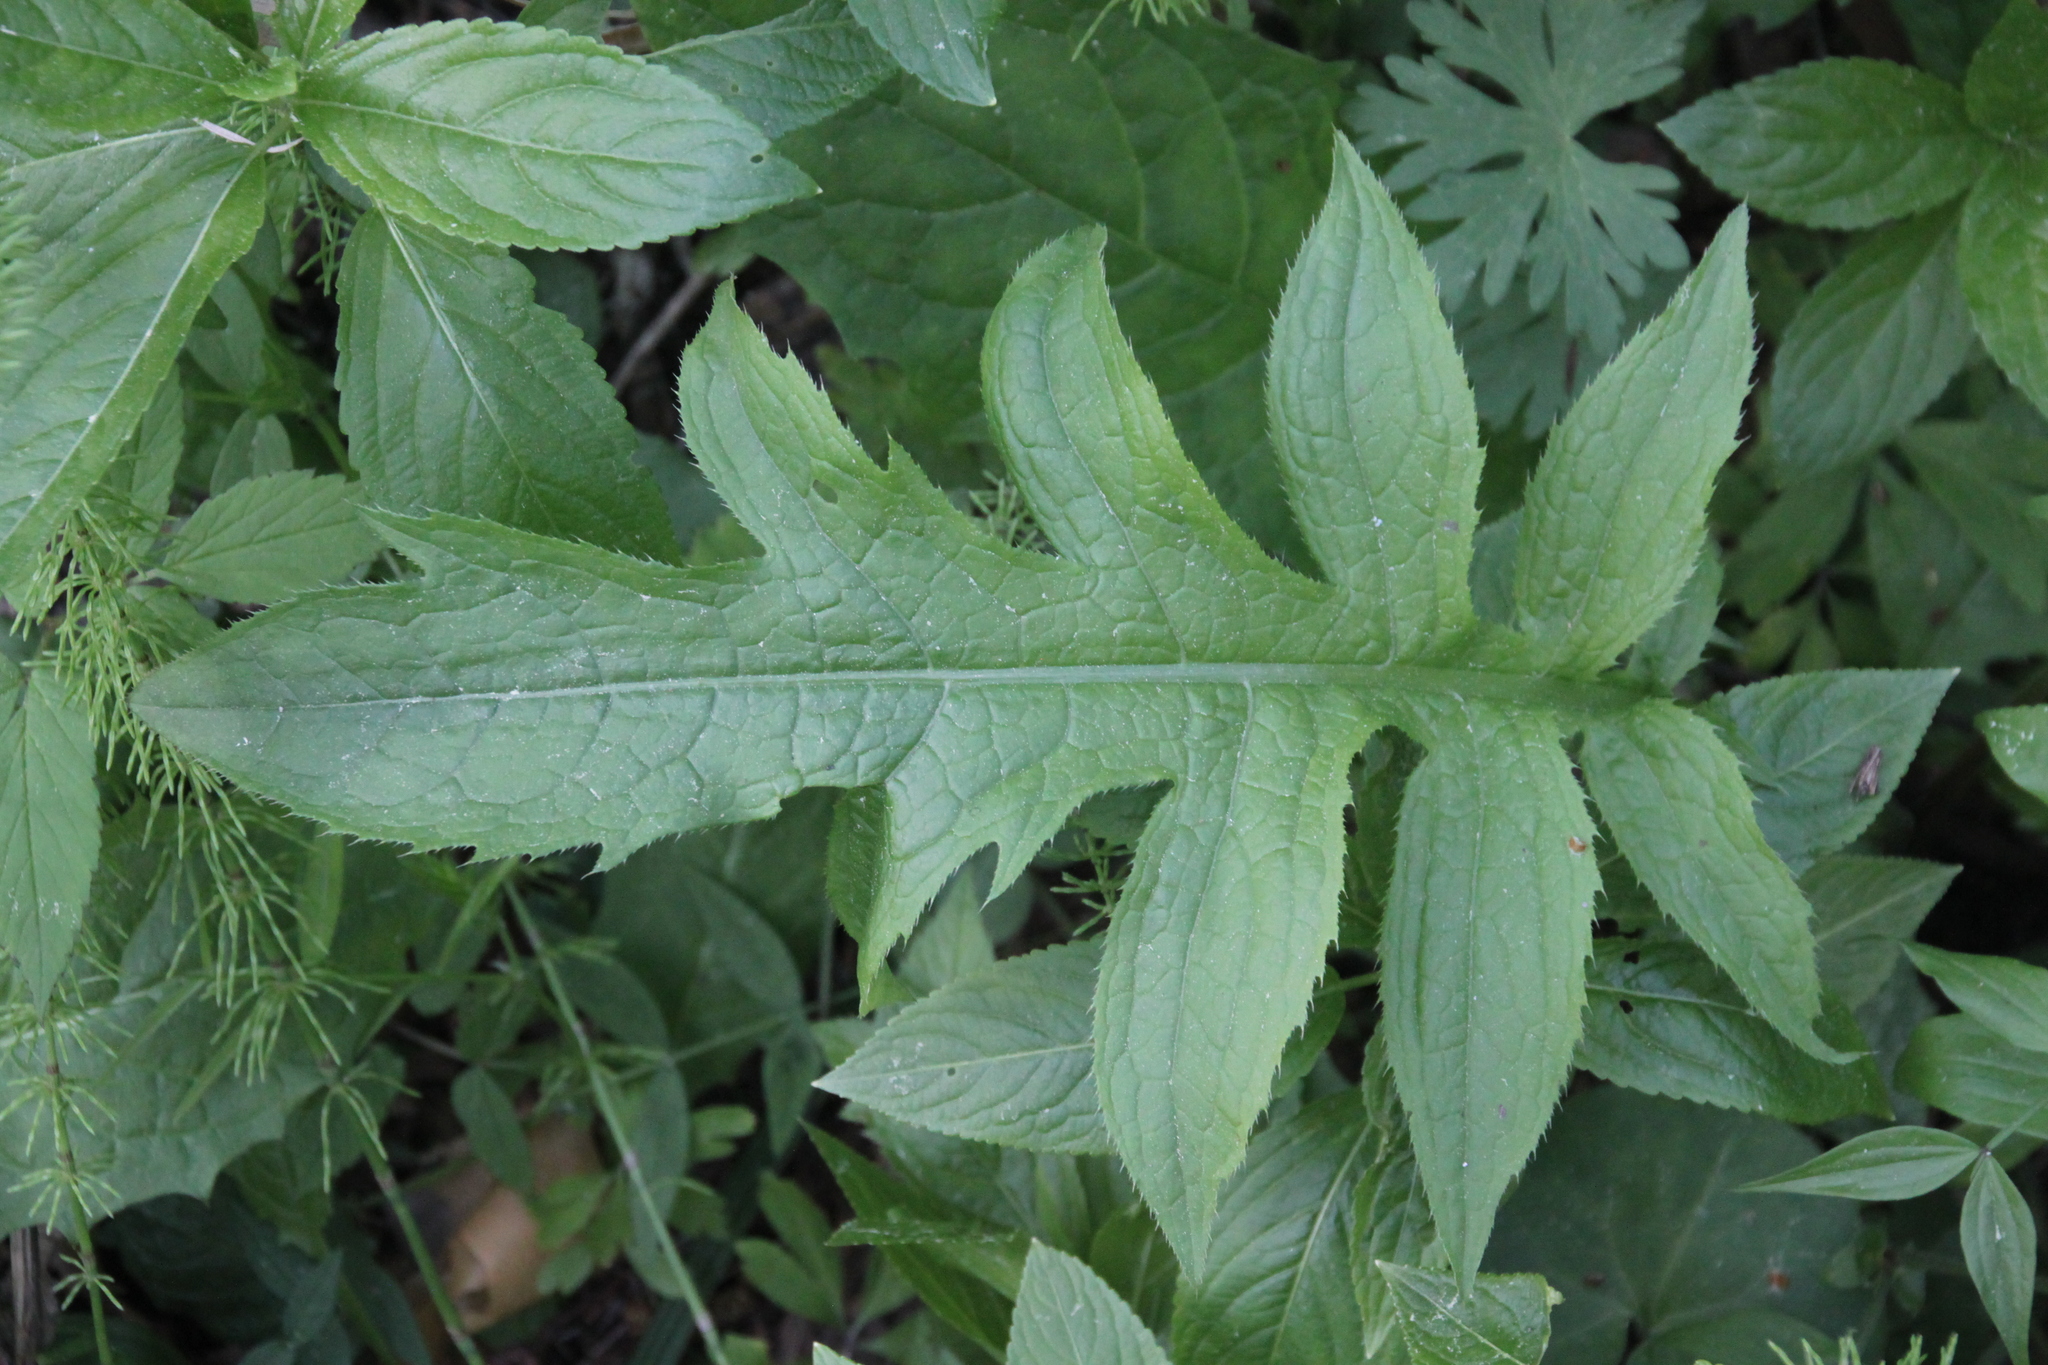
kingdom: Plantae
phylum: Tracheophyta
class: Magnoliopsida
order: Asterales
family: Asteraceae
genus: Cirsium
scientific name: Cirsium oleraceum
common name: Cabbage thistle
